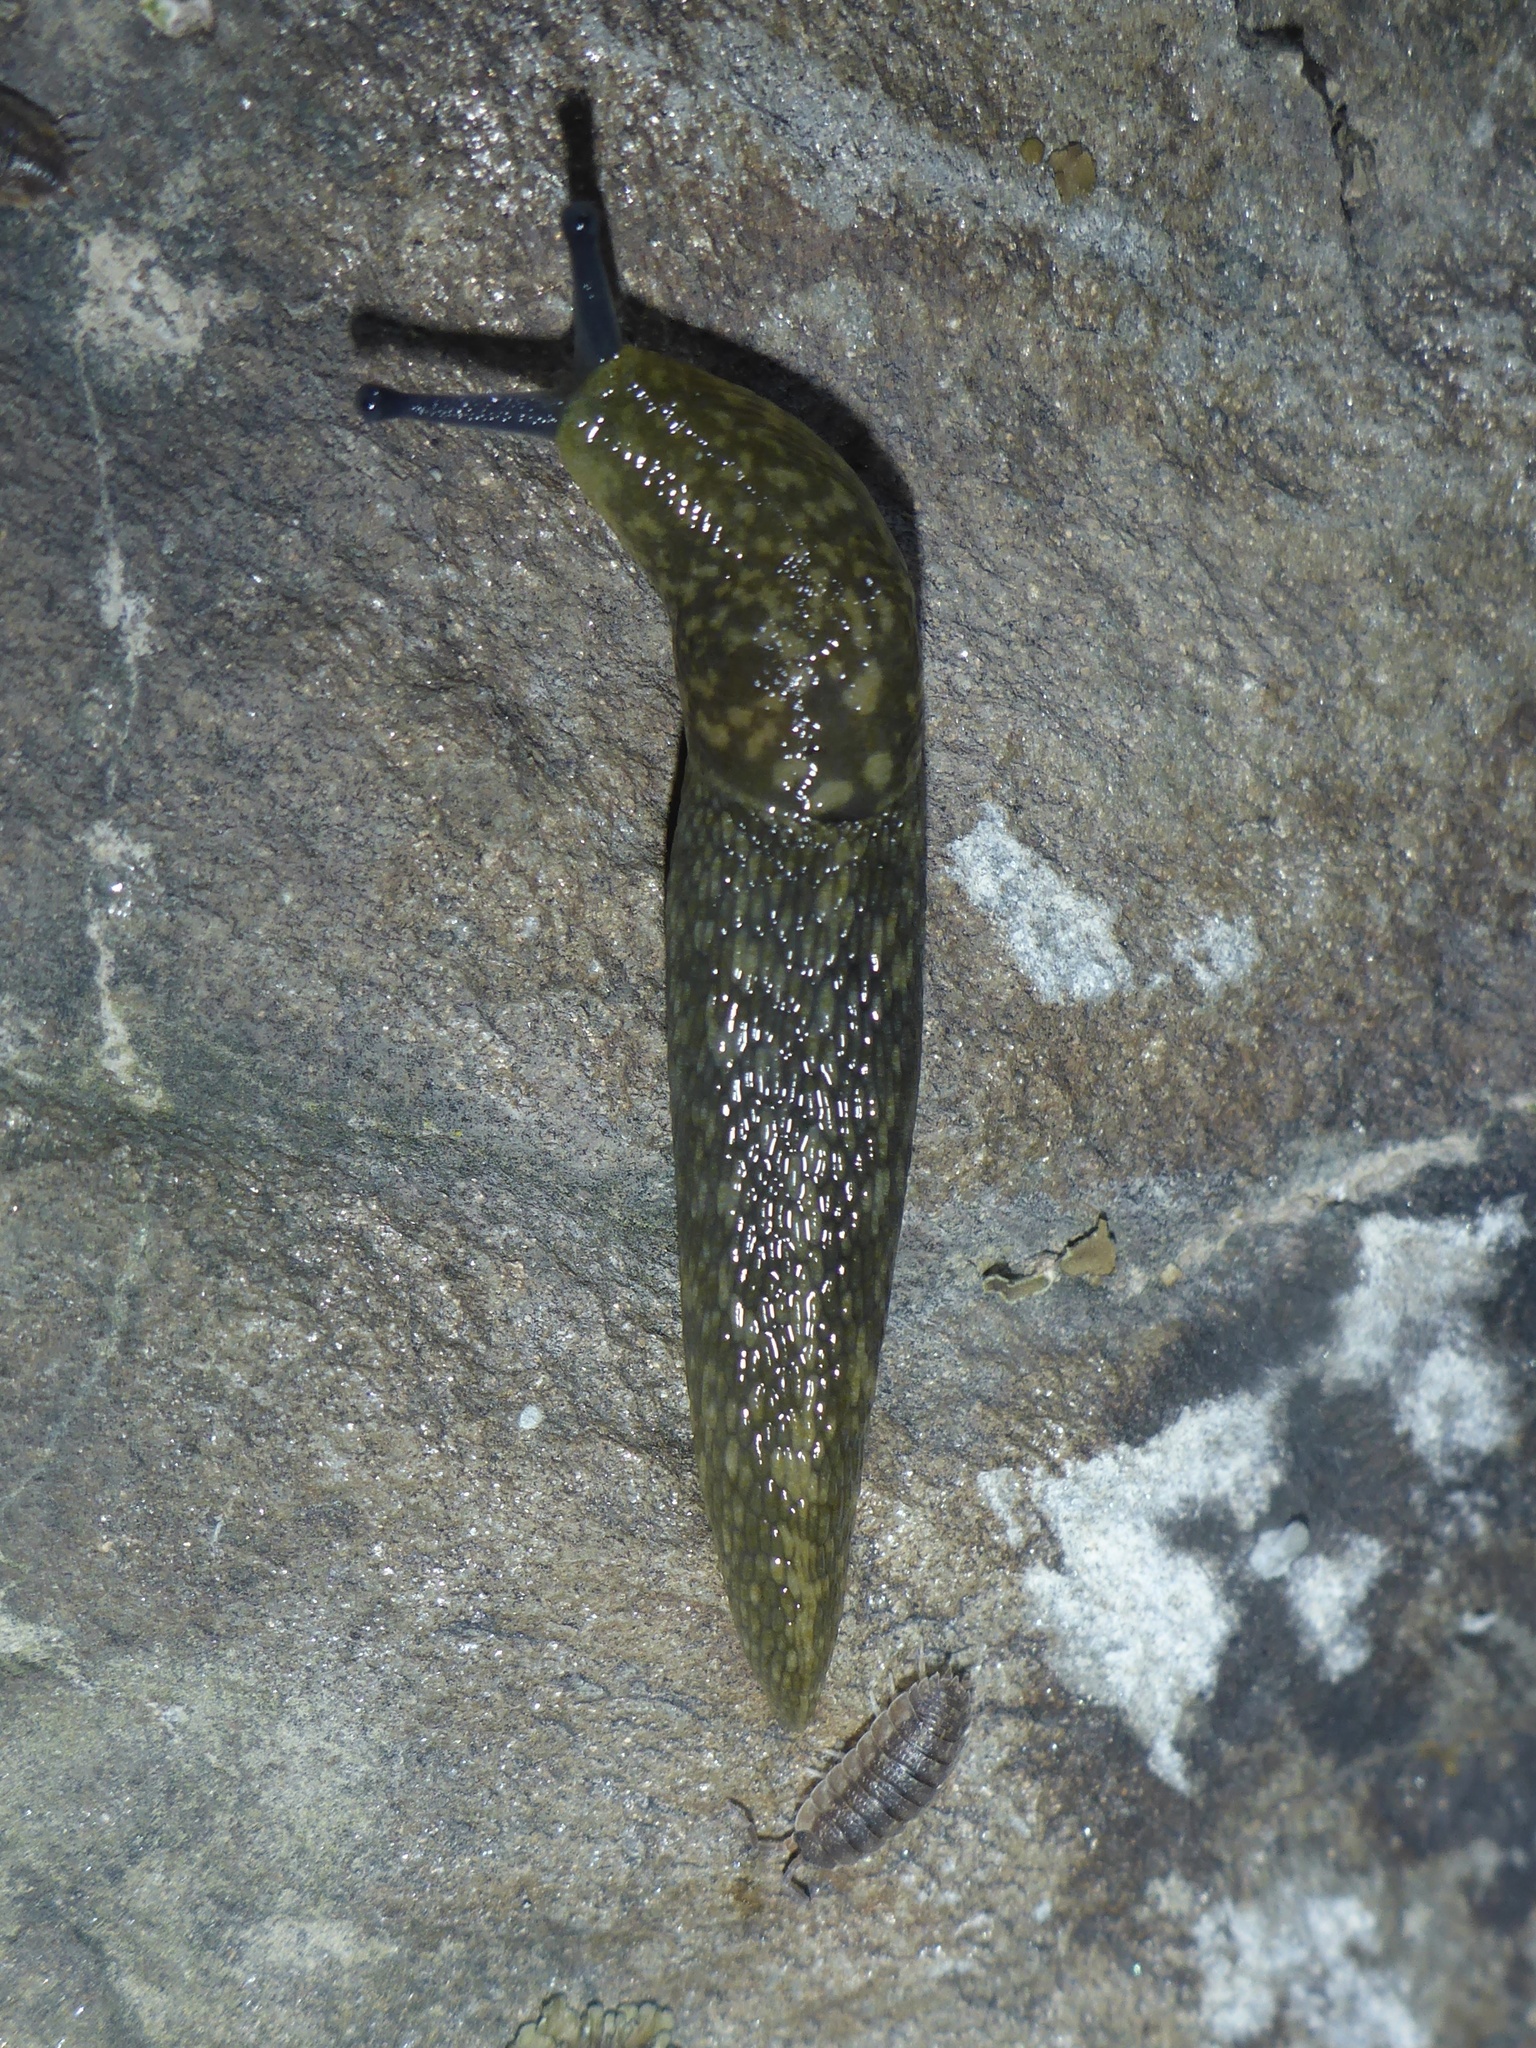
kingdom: Animalia
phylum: Mollusca
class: Gastropoda
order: Stylommatophora
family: Limacidae
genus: Limacus
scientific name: Limacus flavus
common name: Yellow gardenslug
